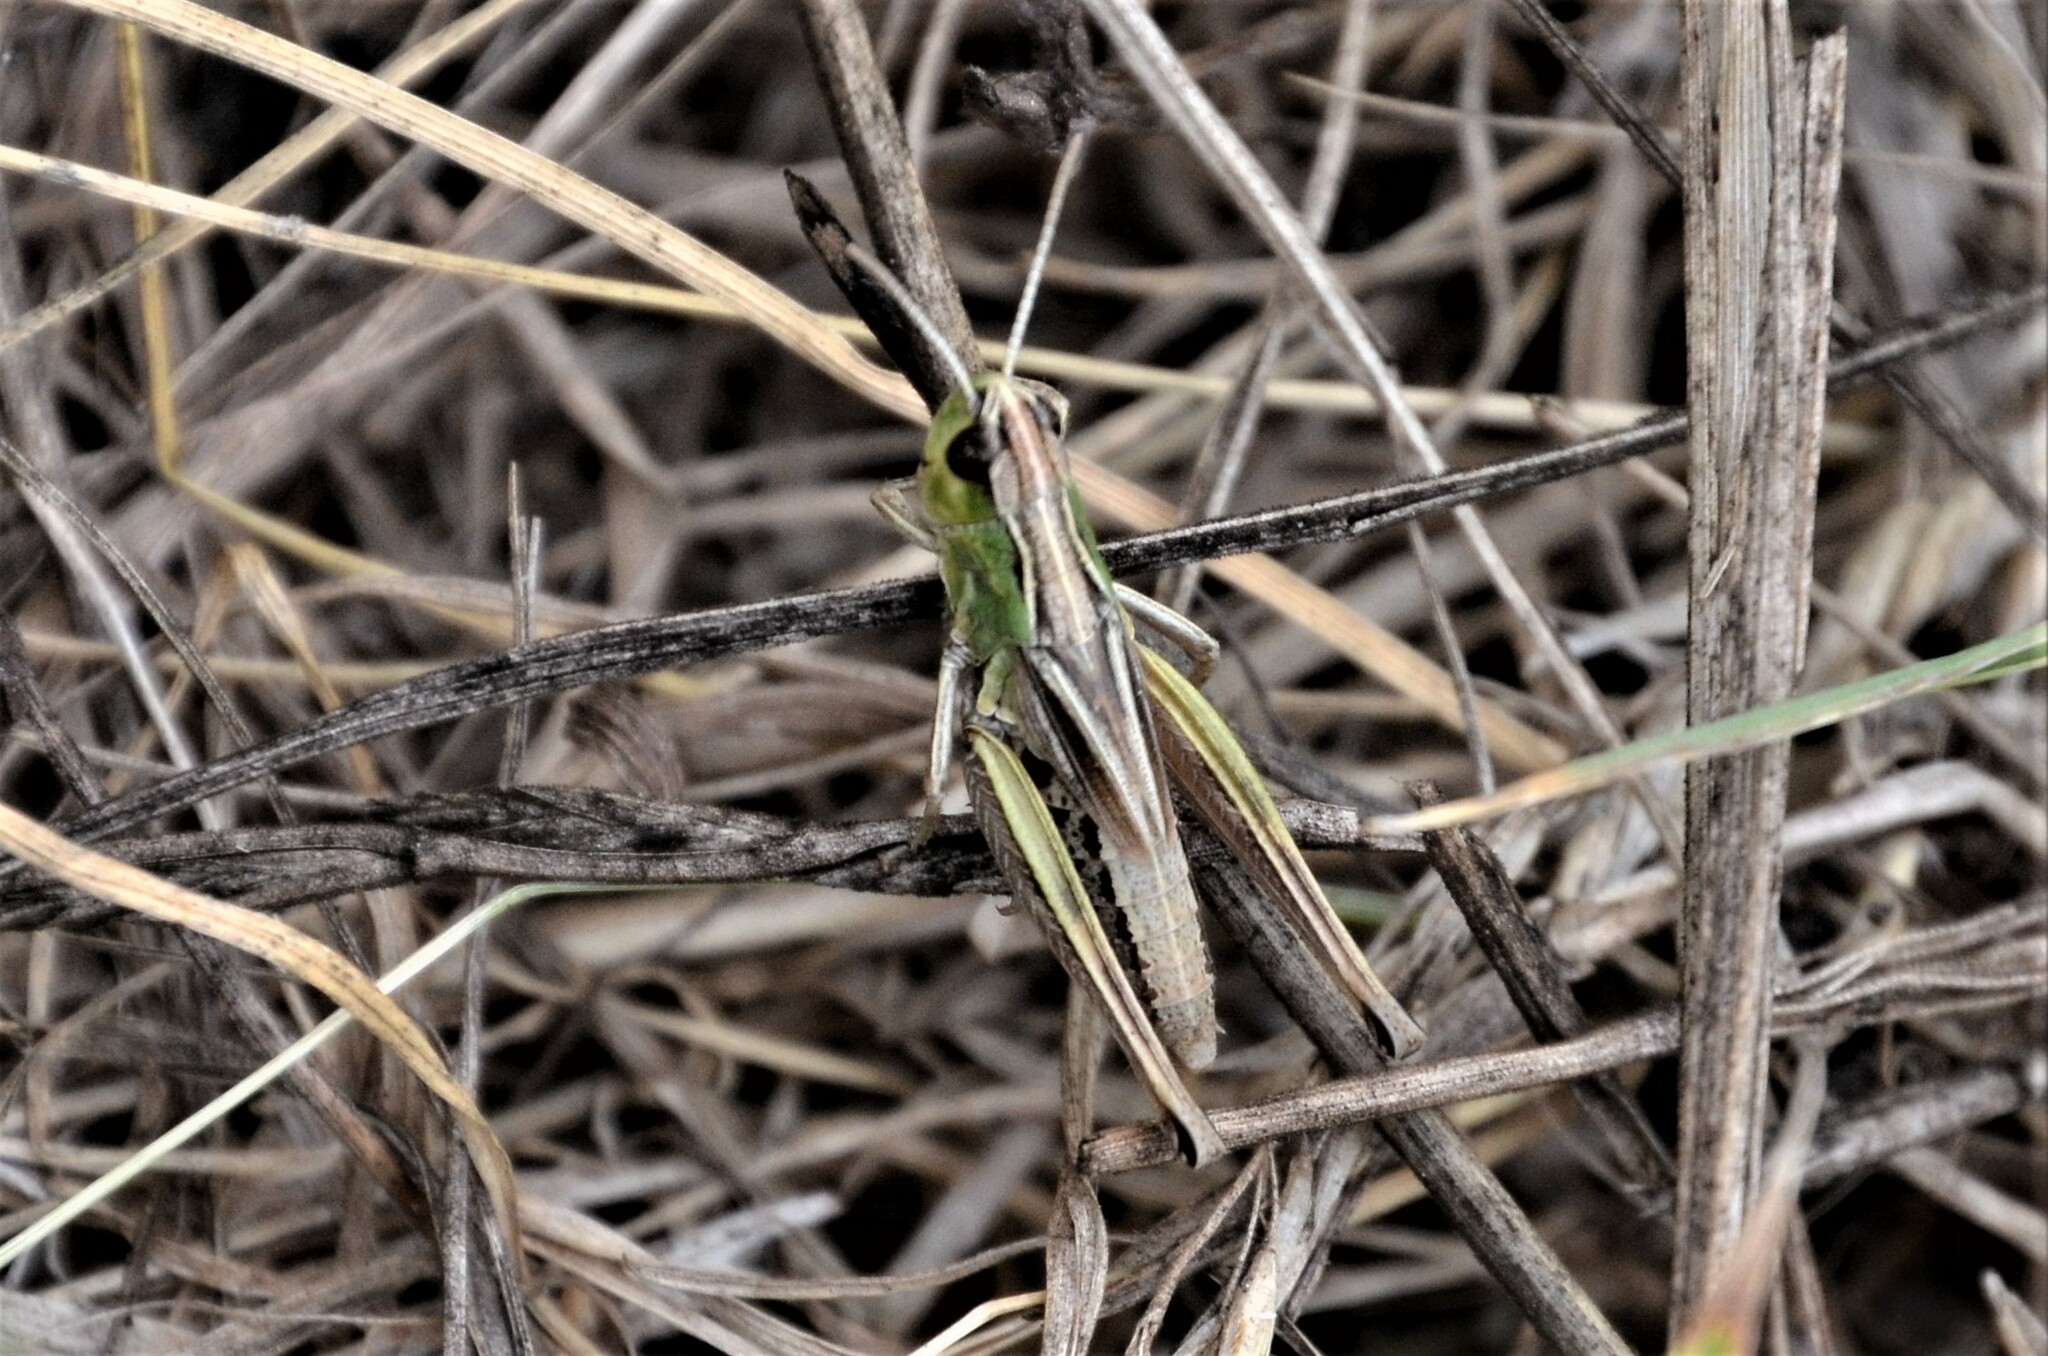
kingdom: Animalia
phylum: Arthropoda
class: Insecta
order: Orthoptera
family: Acrididae
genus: Pseudochorthippus
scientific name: Pseudochorthippus parallelus
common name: Meadow grasshopper
